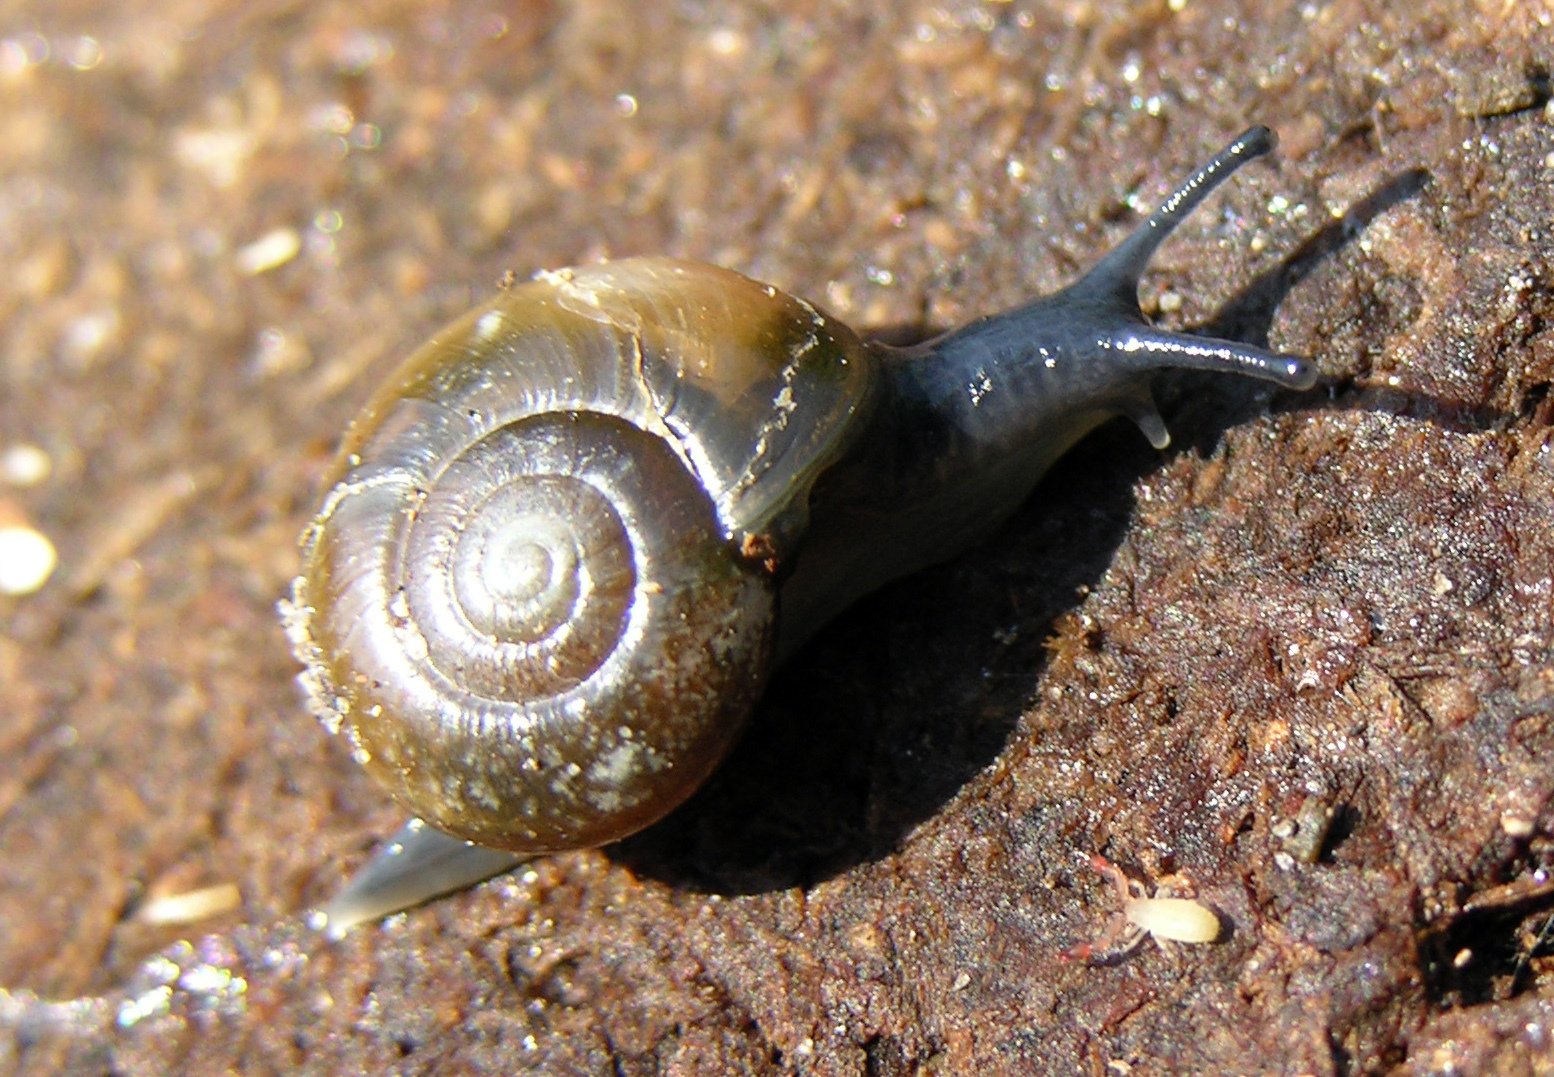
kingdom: Animalia
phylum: Mollusca
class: Gastropoda
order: Stylommatophora
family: Oxychilidae
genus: Oxychilus
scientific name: Oxychilus draparnaudi
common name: Draparnaud's glass snail
